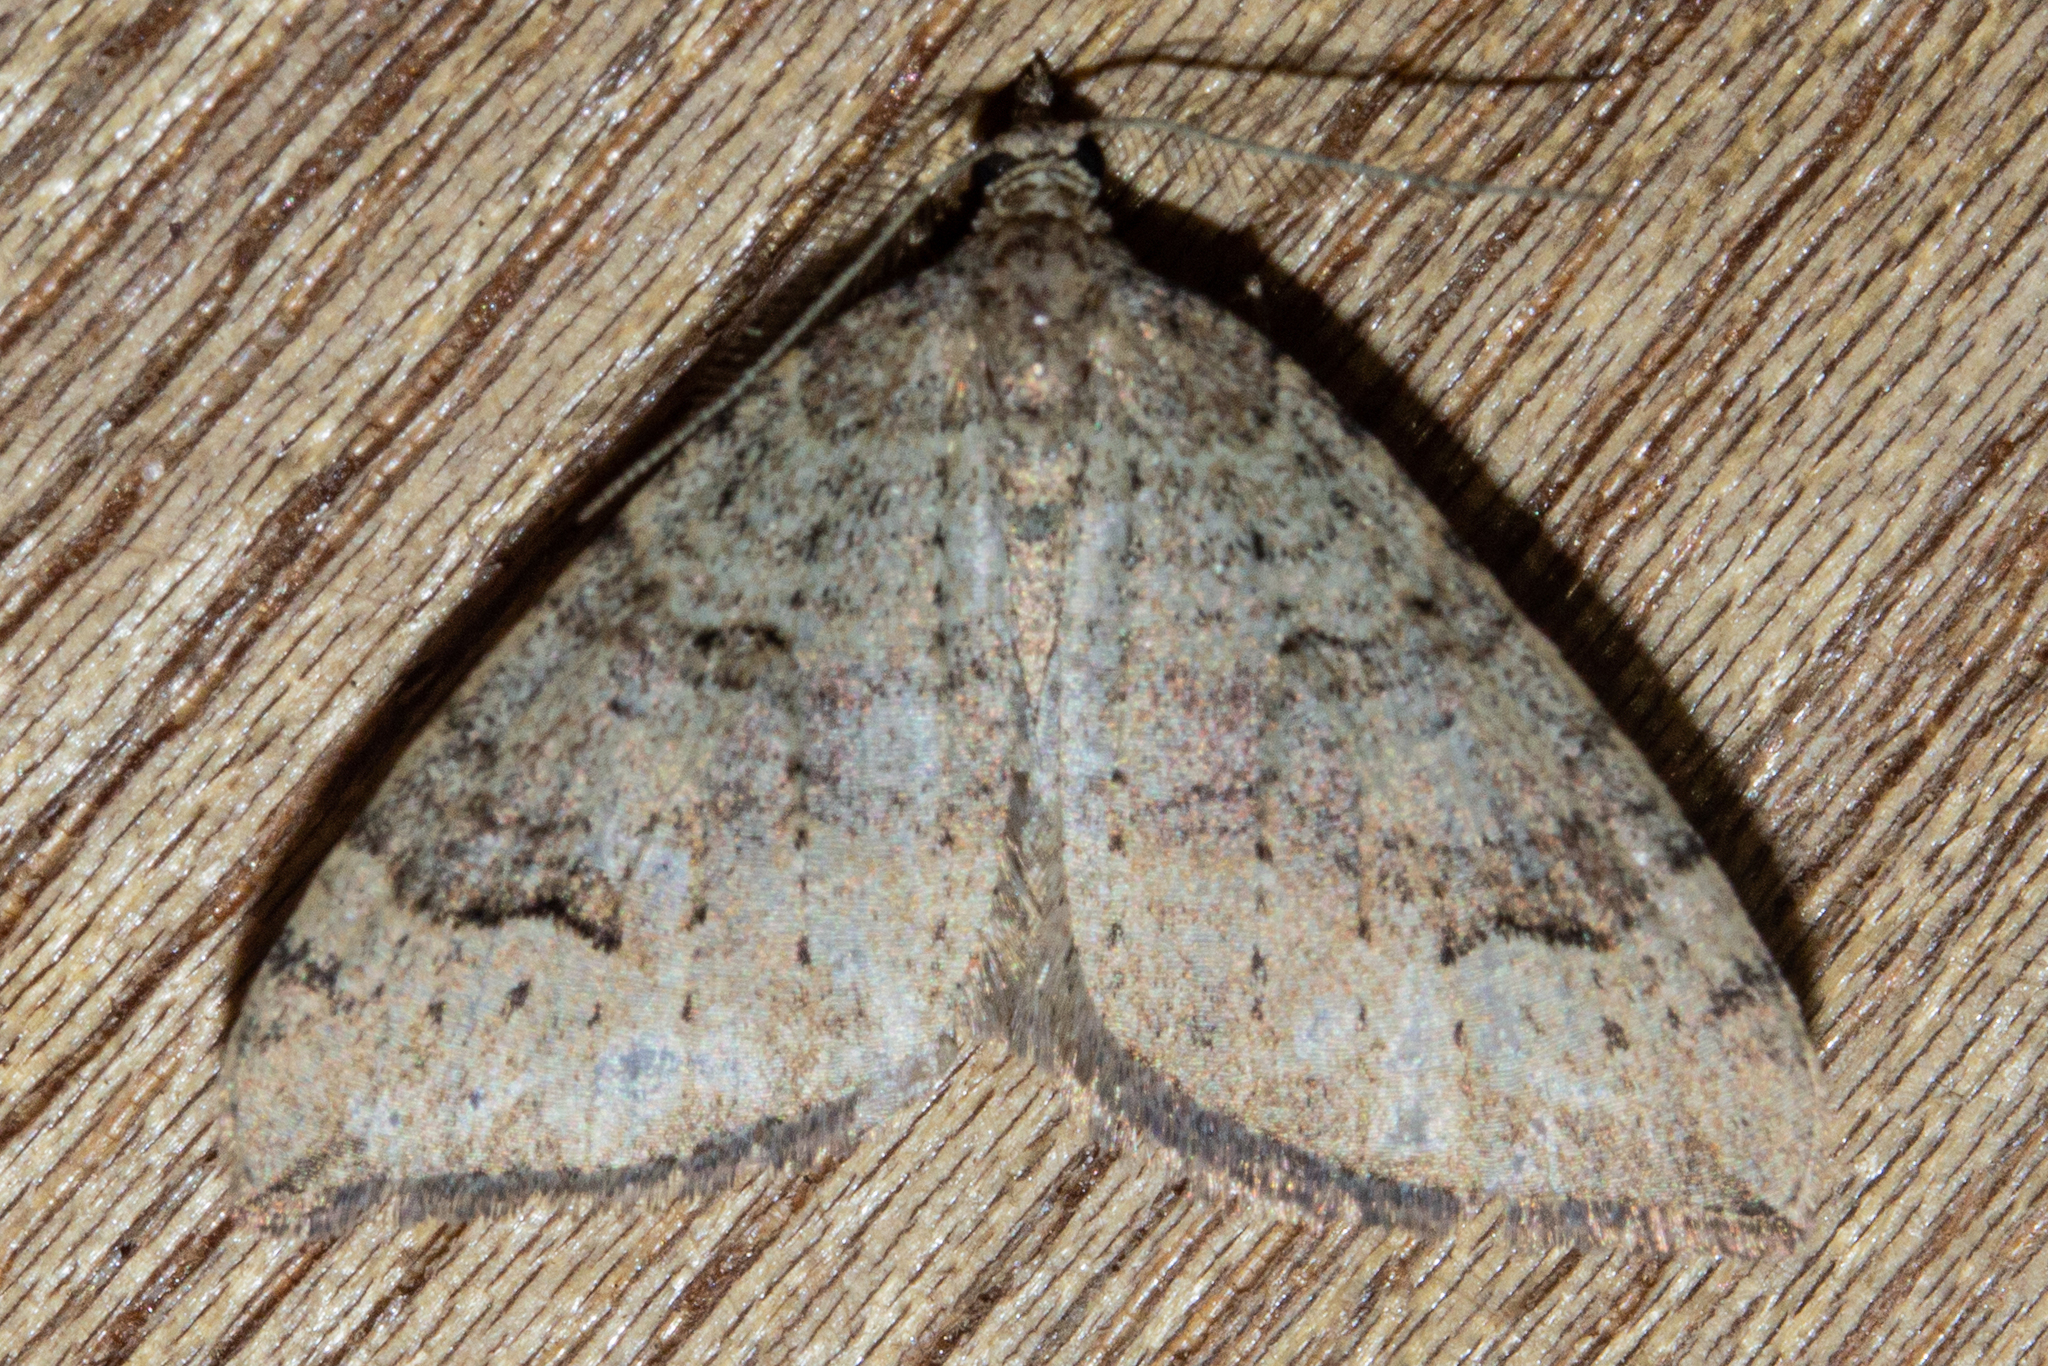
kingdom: Animalia
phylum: Arthropoda
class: Insecta
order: Lepidoptera
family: Geometridae
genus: Epyaxa
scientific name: Epyaxa rosearia
